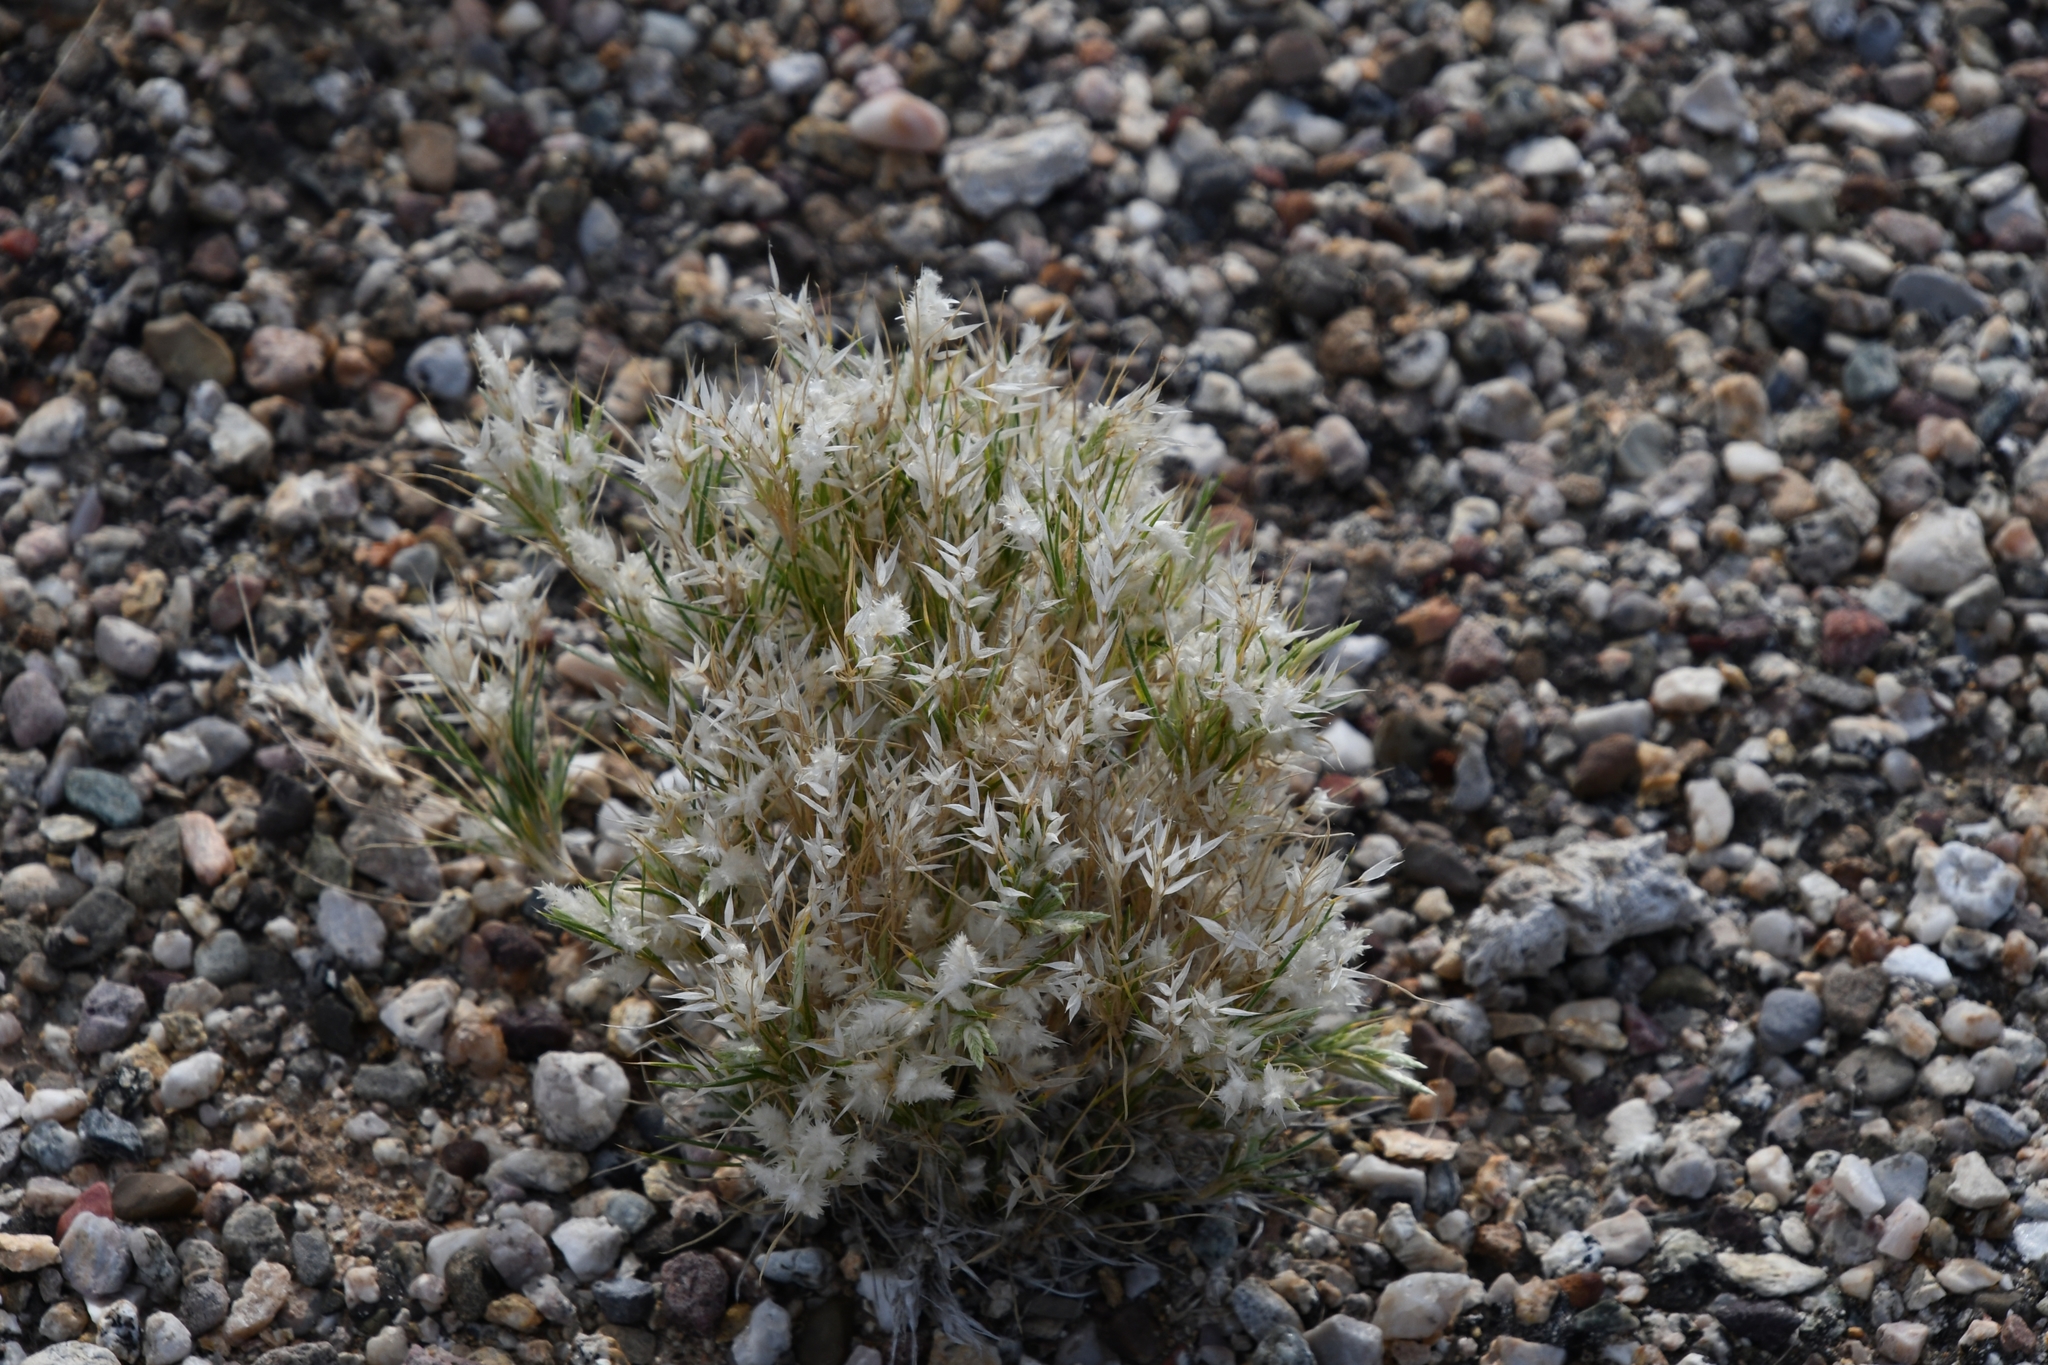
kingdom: Plantae
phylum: Tracheophyta
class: Liliopsida
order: Poales
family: Poaceae
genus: Dasyochloa
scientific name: Dasyochloa pulchella
